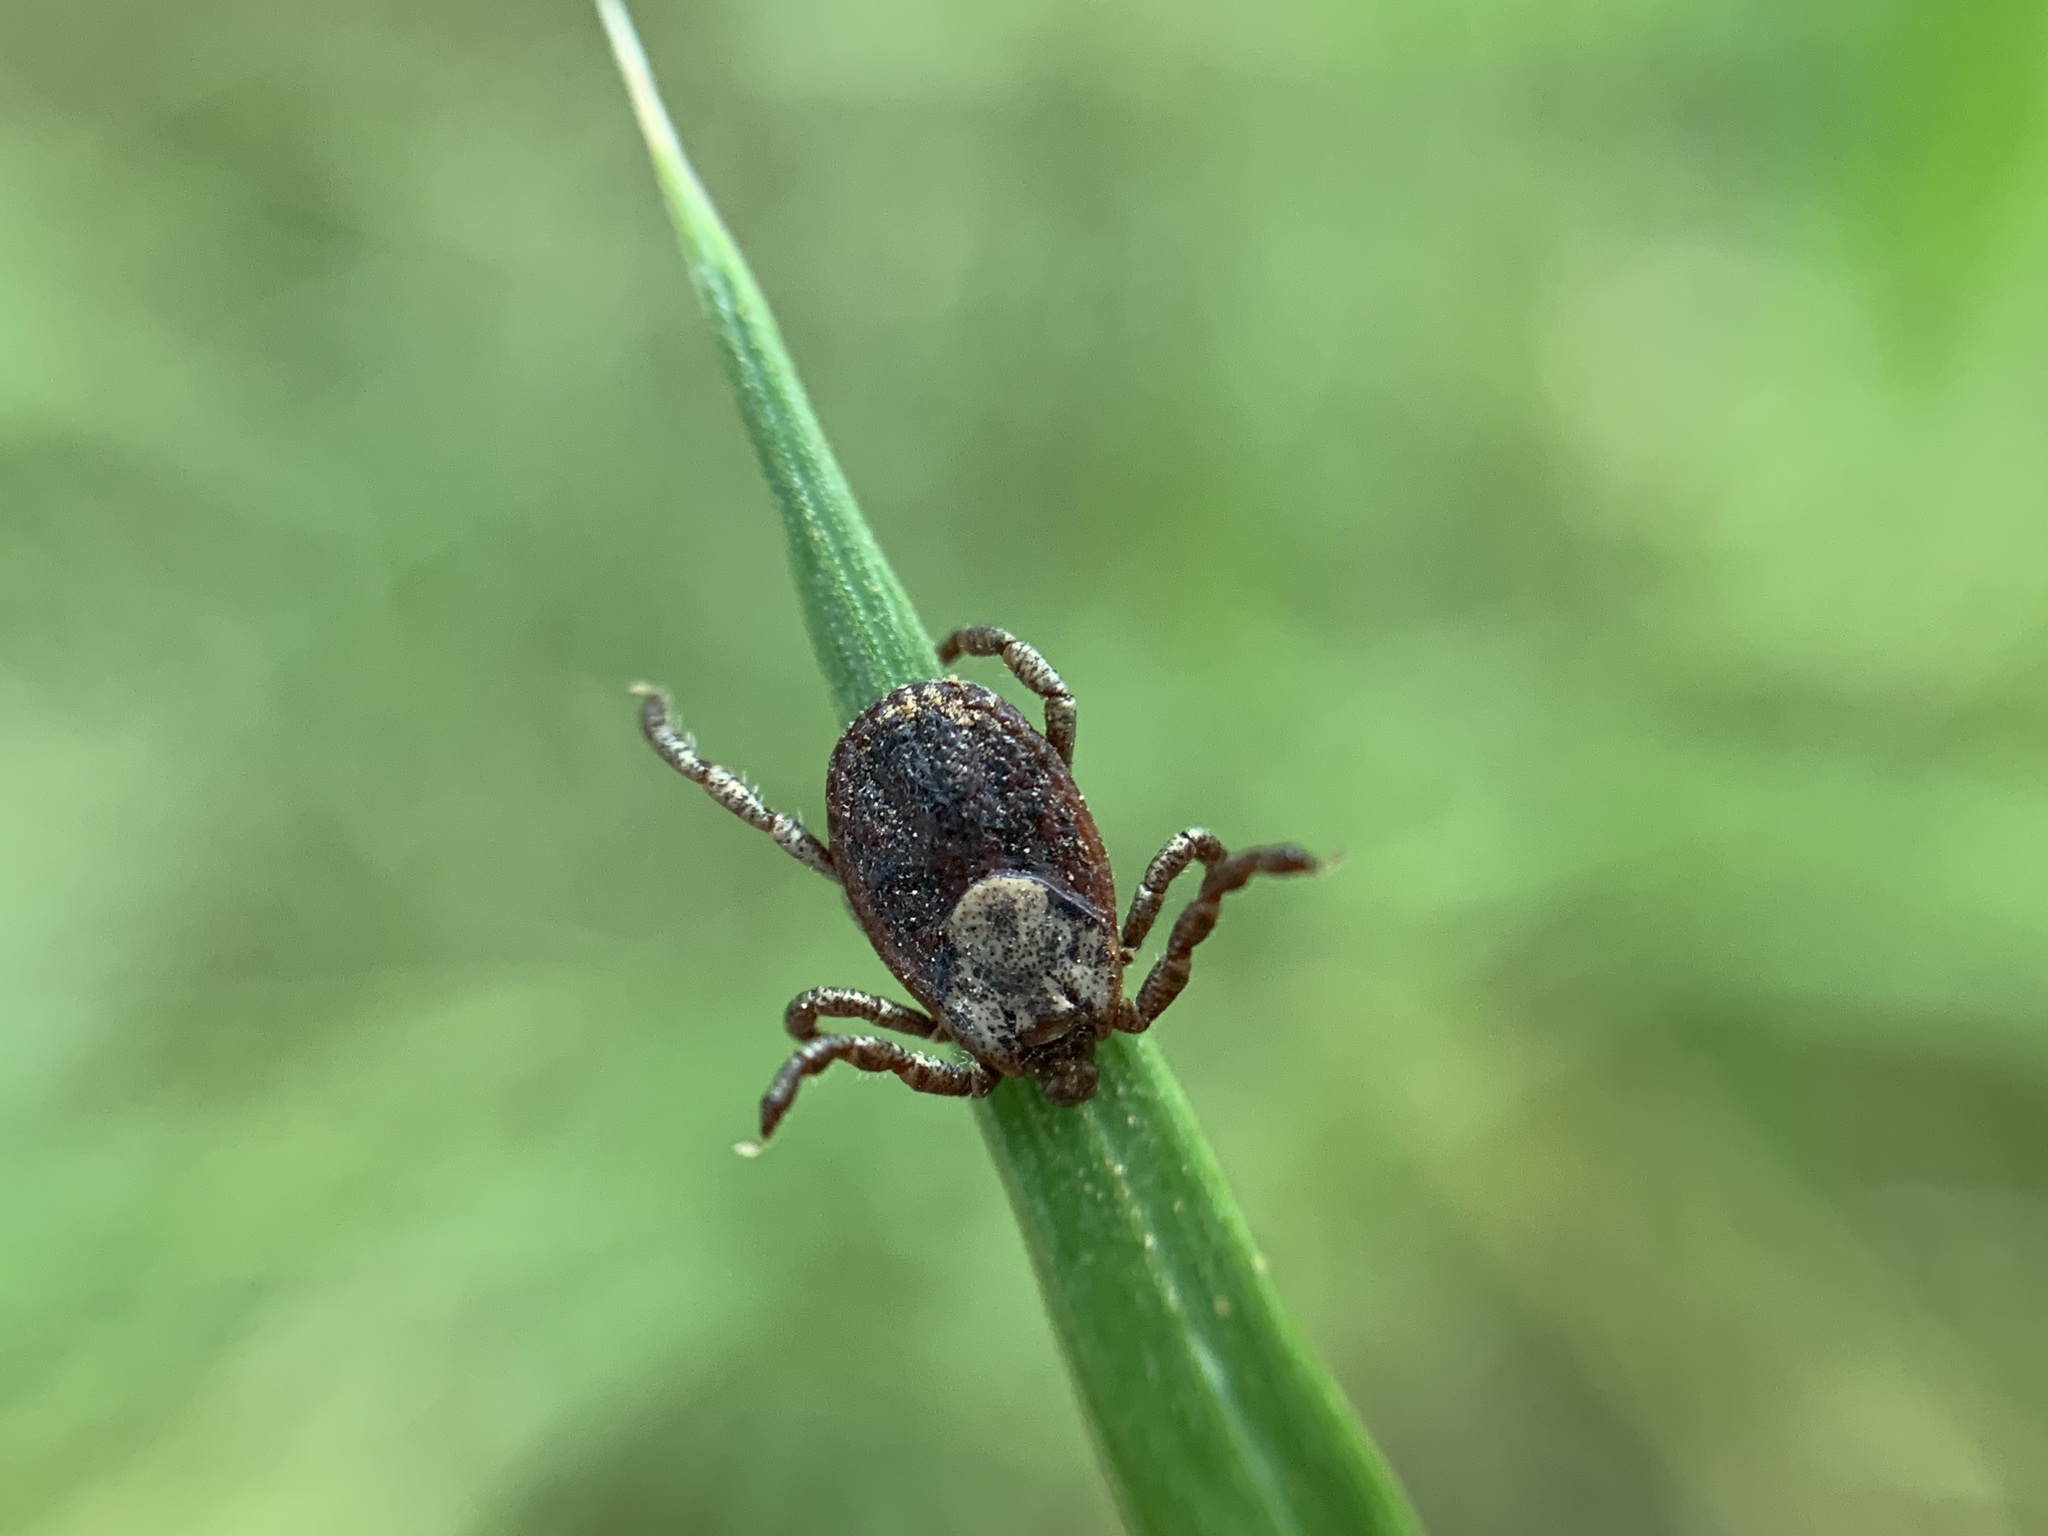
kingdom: Animalia
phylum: Arthropoda
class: Arachnida
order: Ixodida
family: Ixodidae
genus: Dermacentor
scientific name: Dermacentor occidentalis
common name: Net tick
